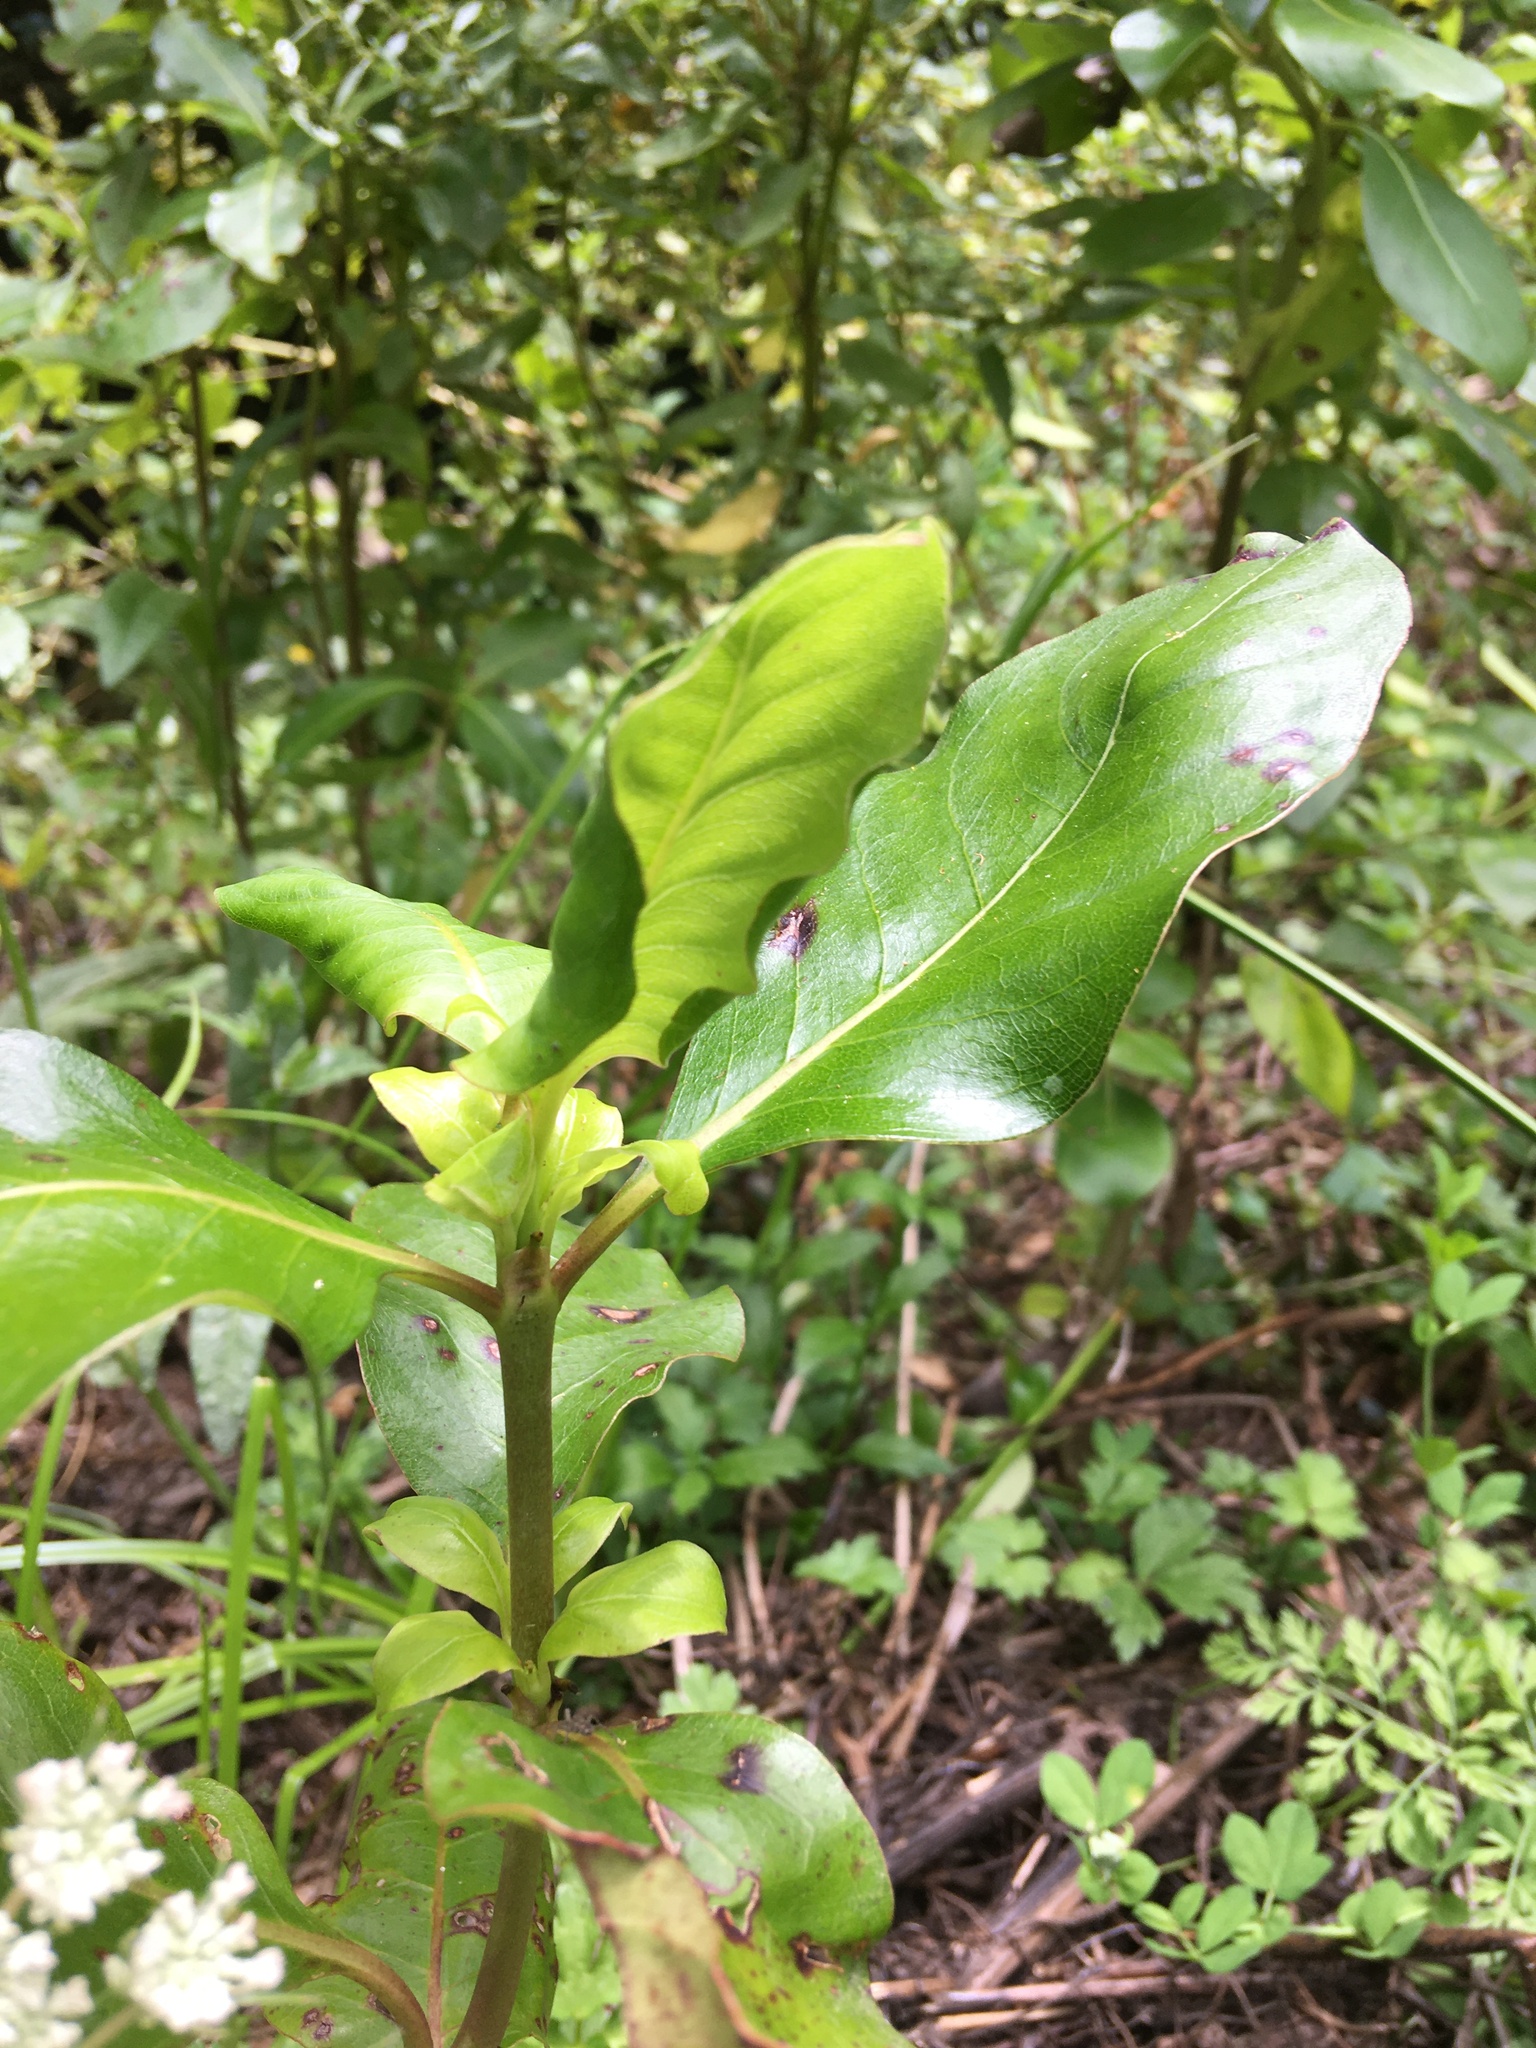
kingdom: Plantae
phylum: Tracheophyta
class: Magnoliopsida
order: Gentianales
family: Rubiaceae
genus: Coprosma
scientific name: Coprosma robusta
